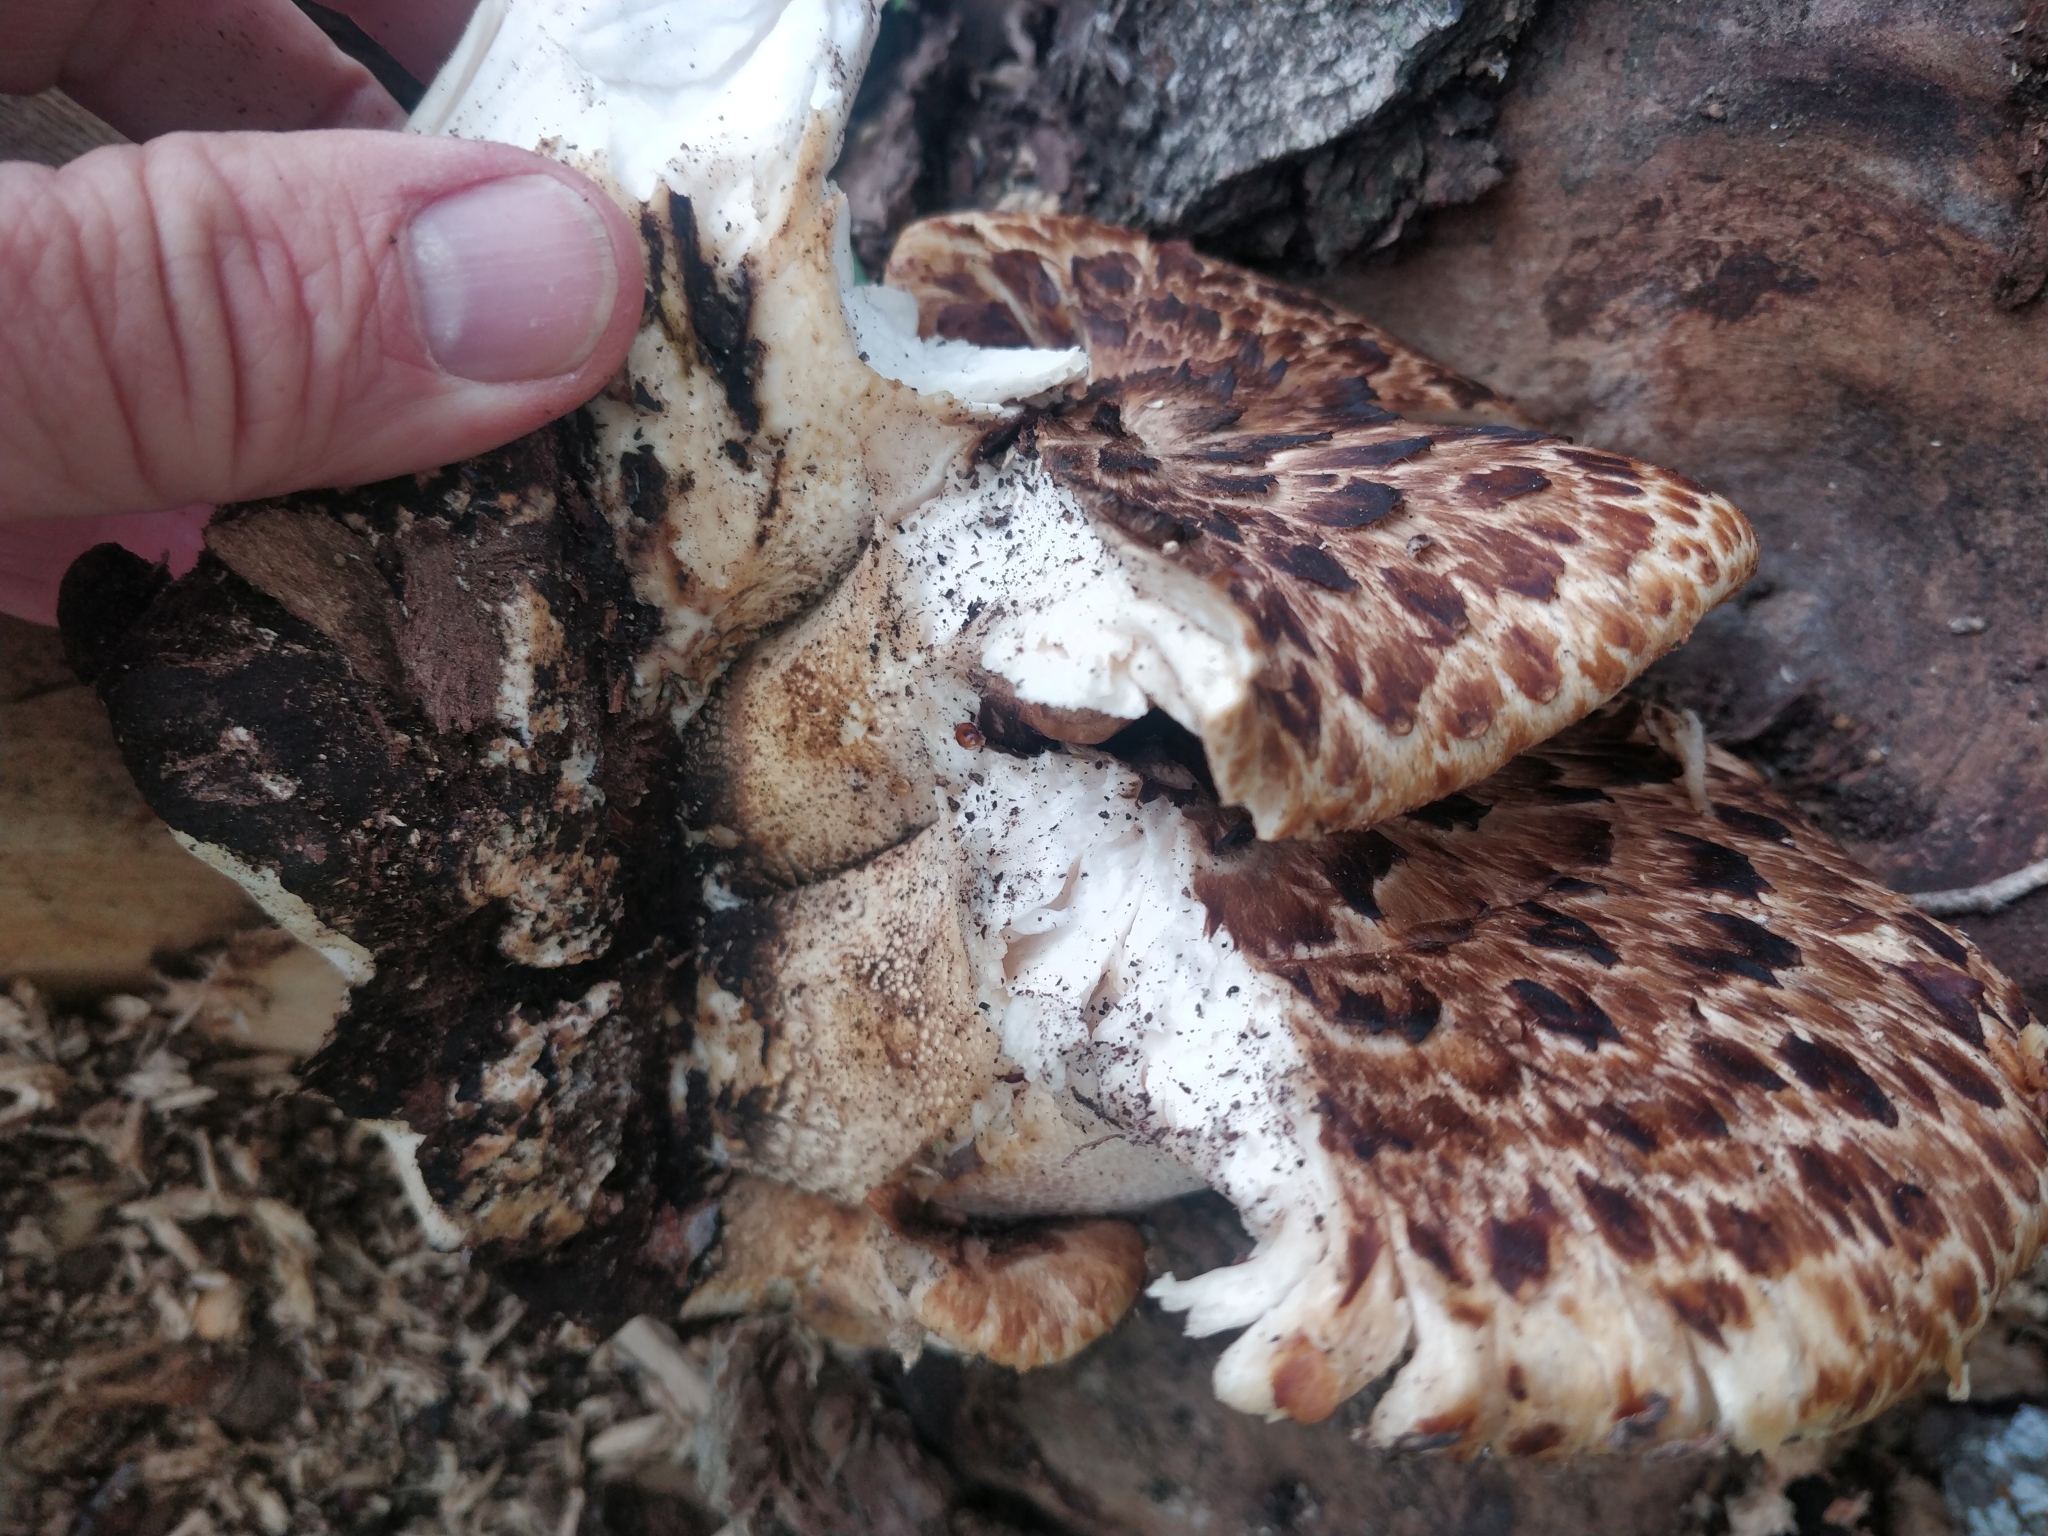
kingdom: Fungi
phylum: Basidiomycota
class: Agaricomycetes
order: Polyporales
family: Polyporaceae
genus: Cerioporus
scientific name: Cerioporus squamosus
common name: Dryad's saddle
